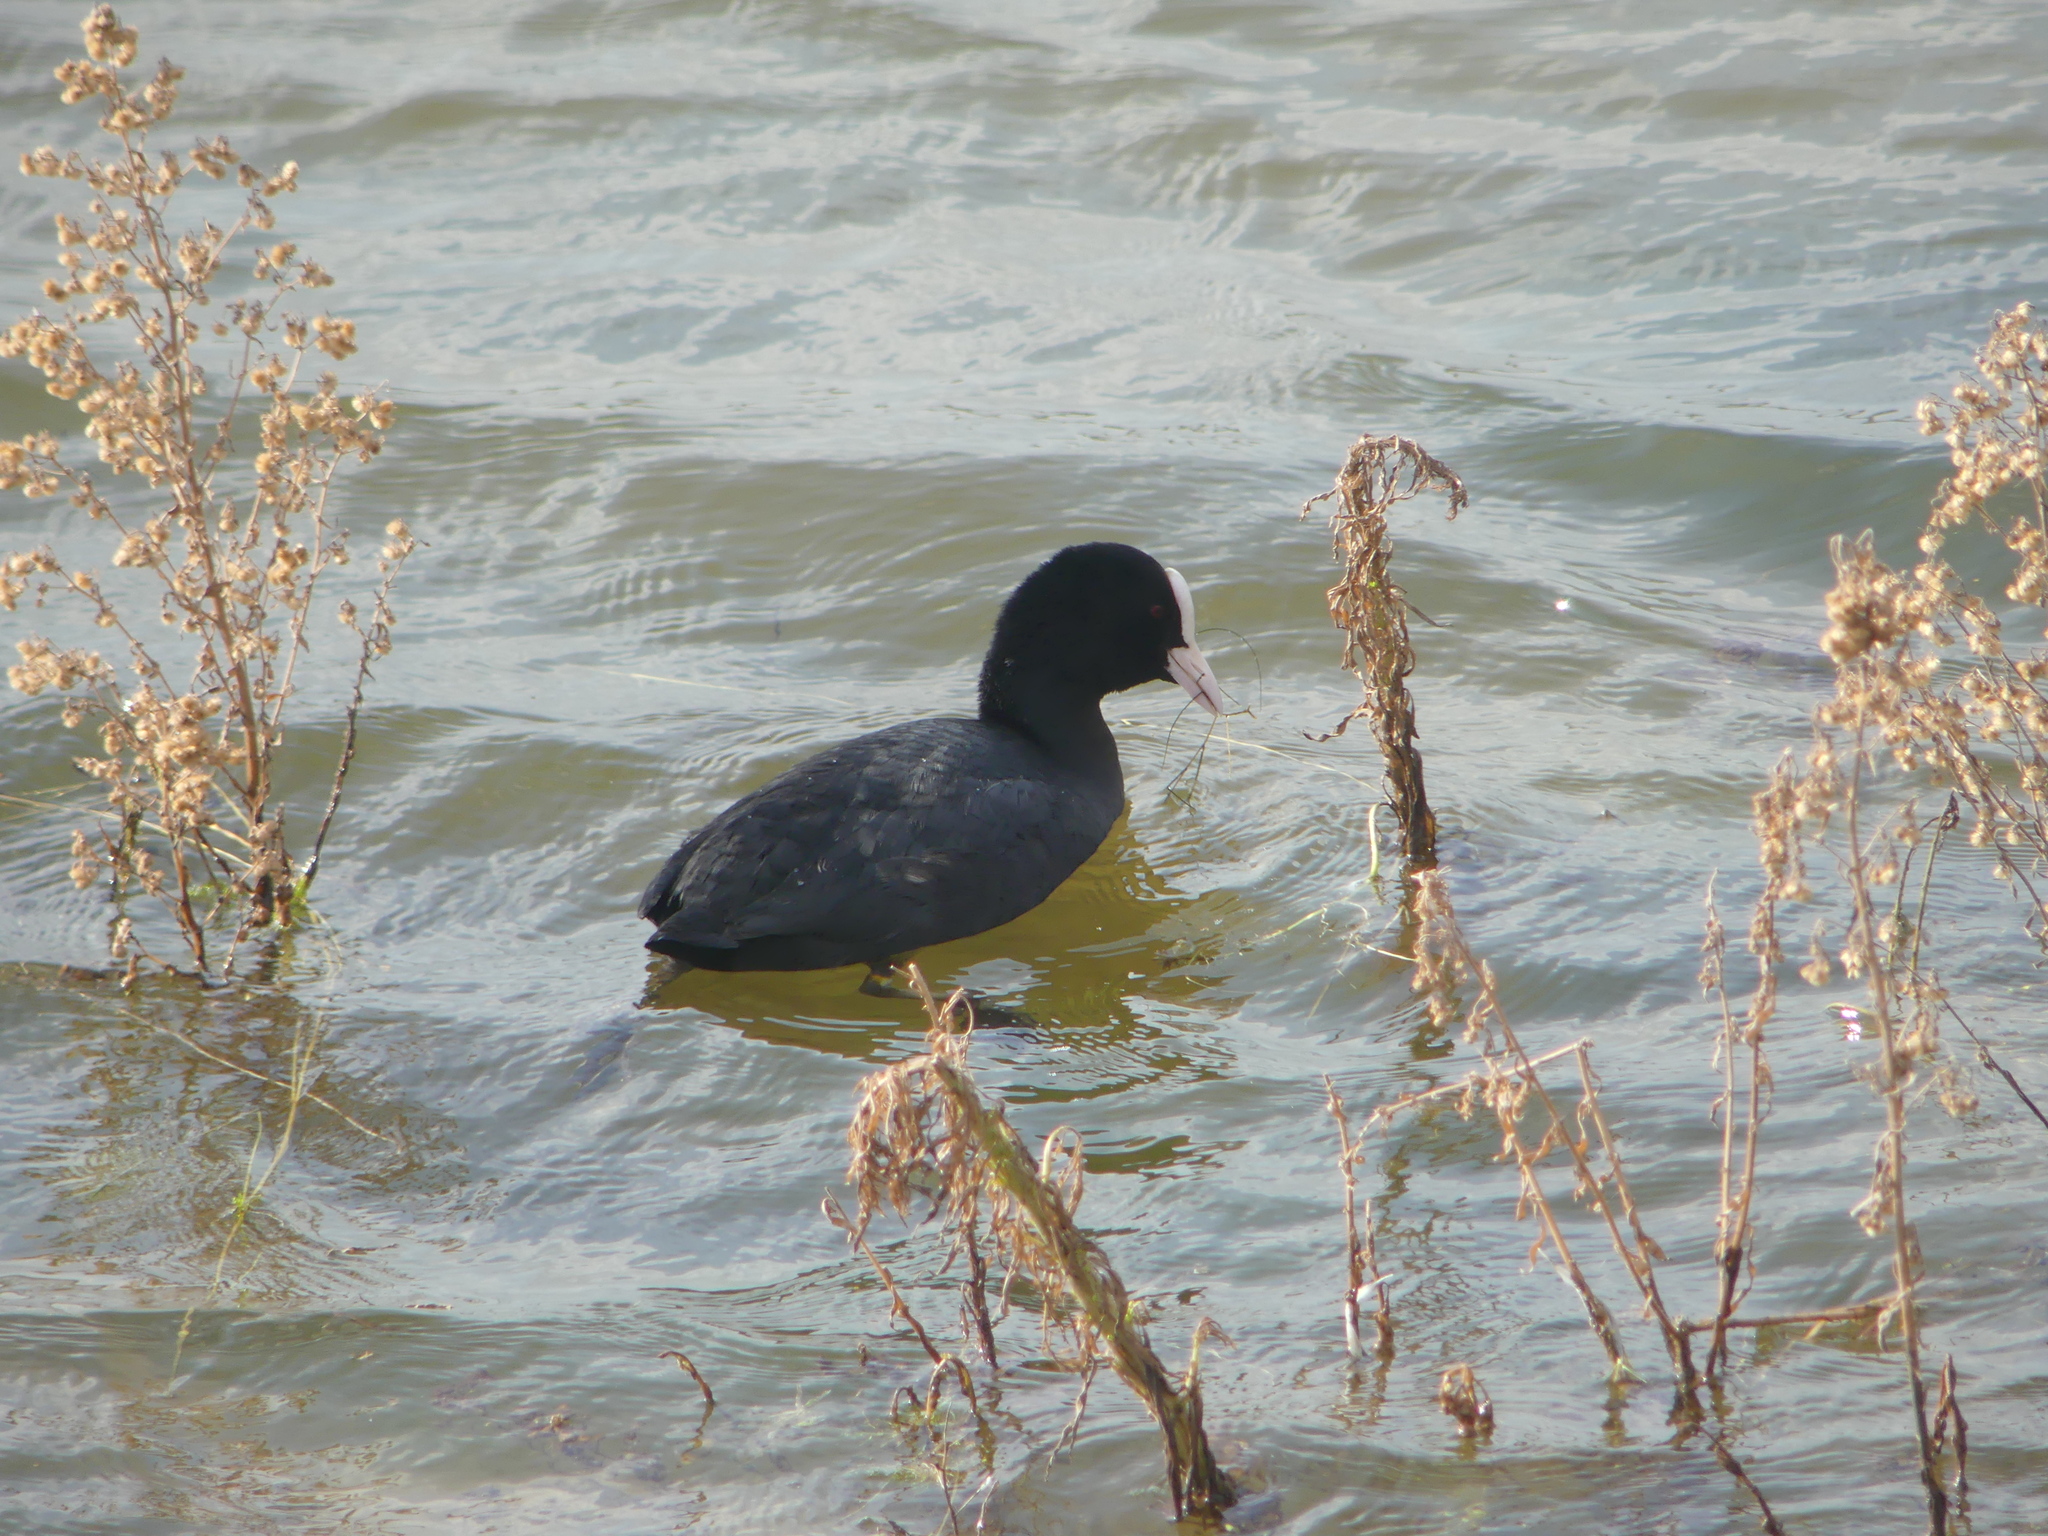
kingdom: Animalia
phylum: Chordata
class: Aves
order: Gruiformes
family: Rallidae
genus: Fulica
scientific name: Fulica atra
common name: Eurasian coot
